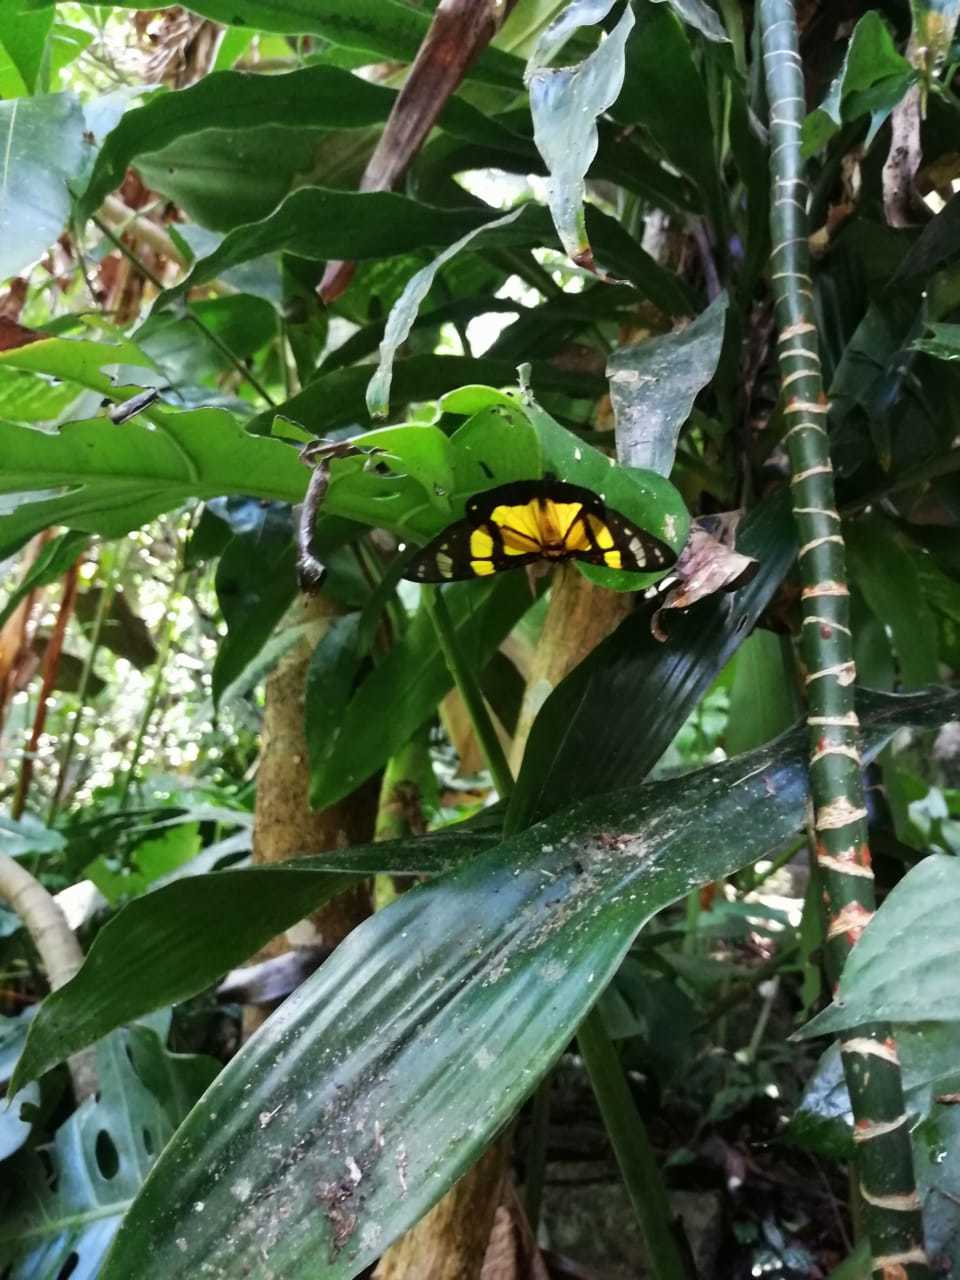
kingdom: Animalia
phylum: Arthropoda
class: Insecta
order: Lepidoptera
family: Erebidae
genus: Phaloe
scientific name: Phaloe
